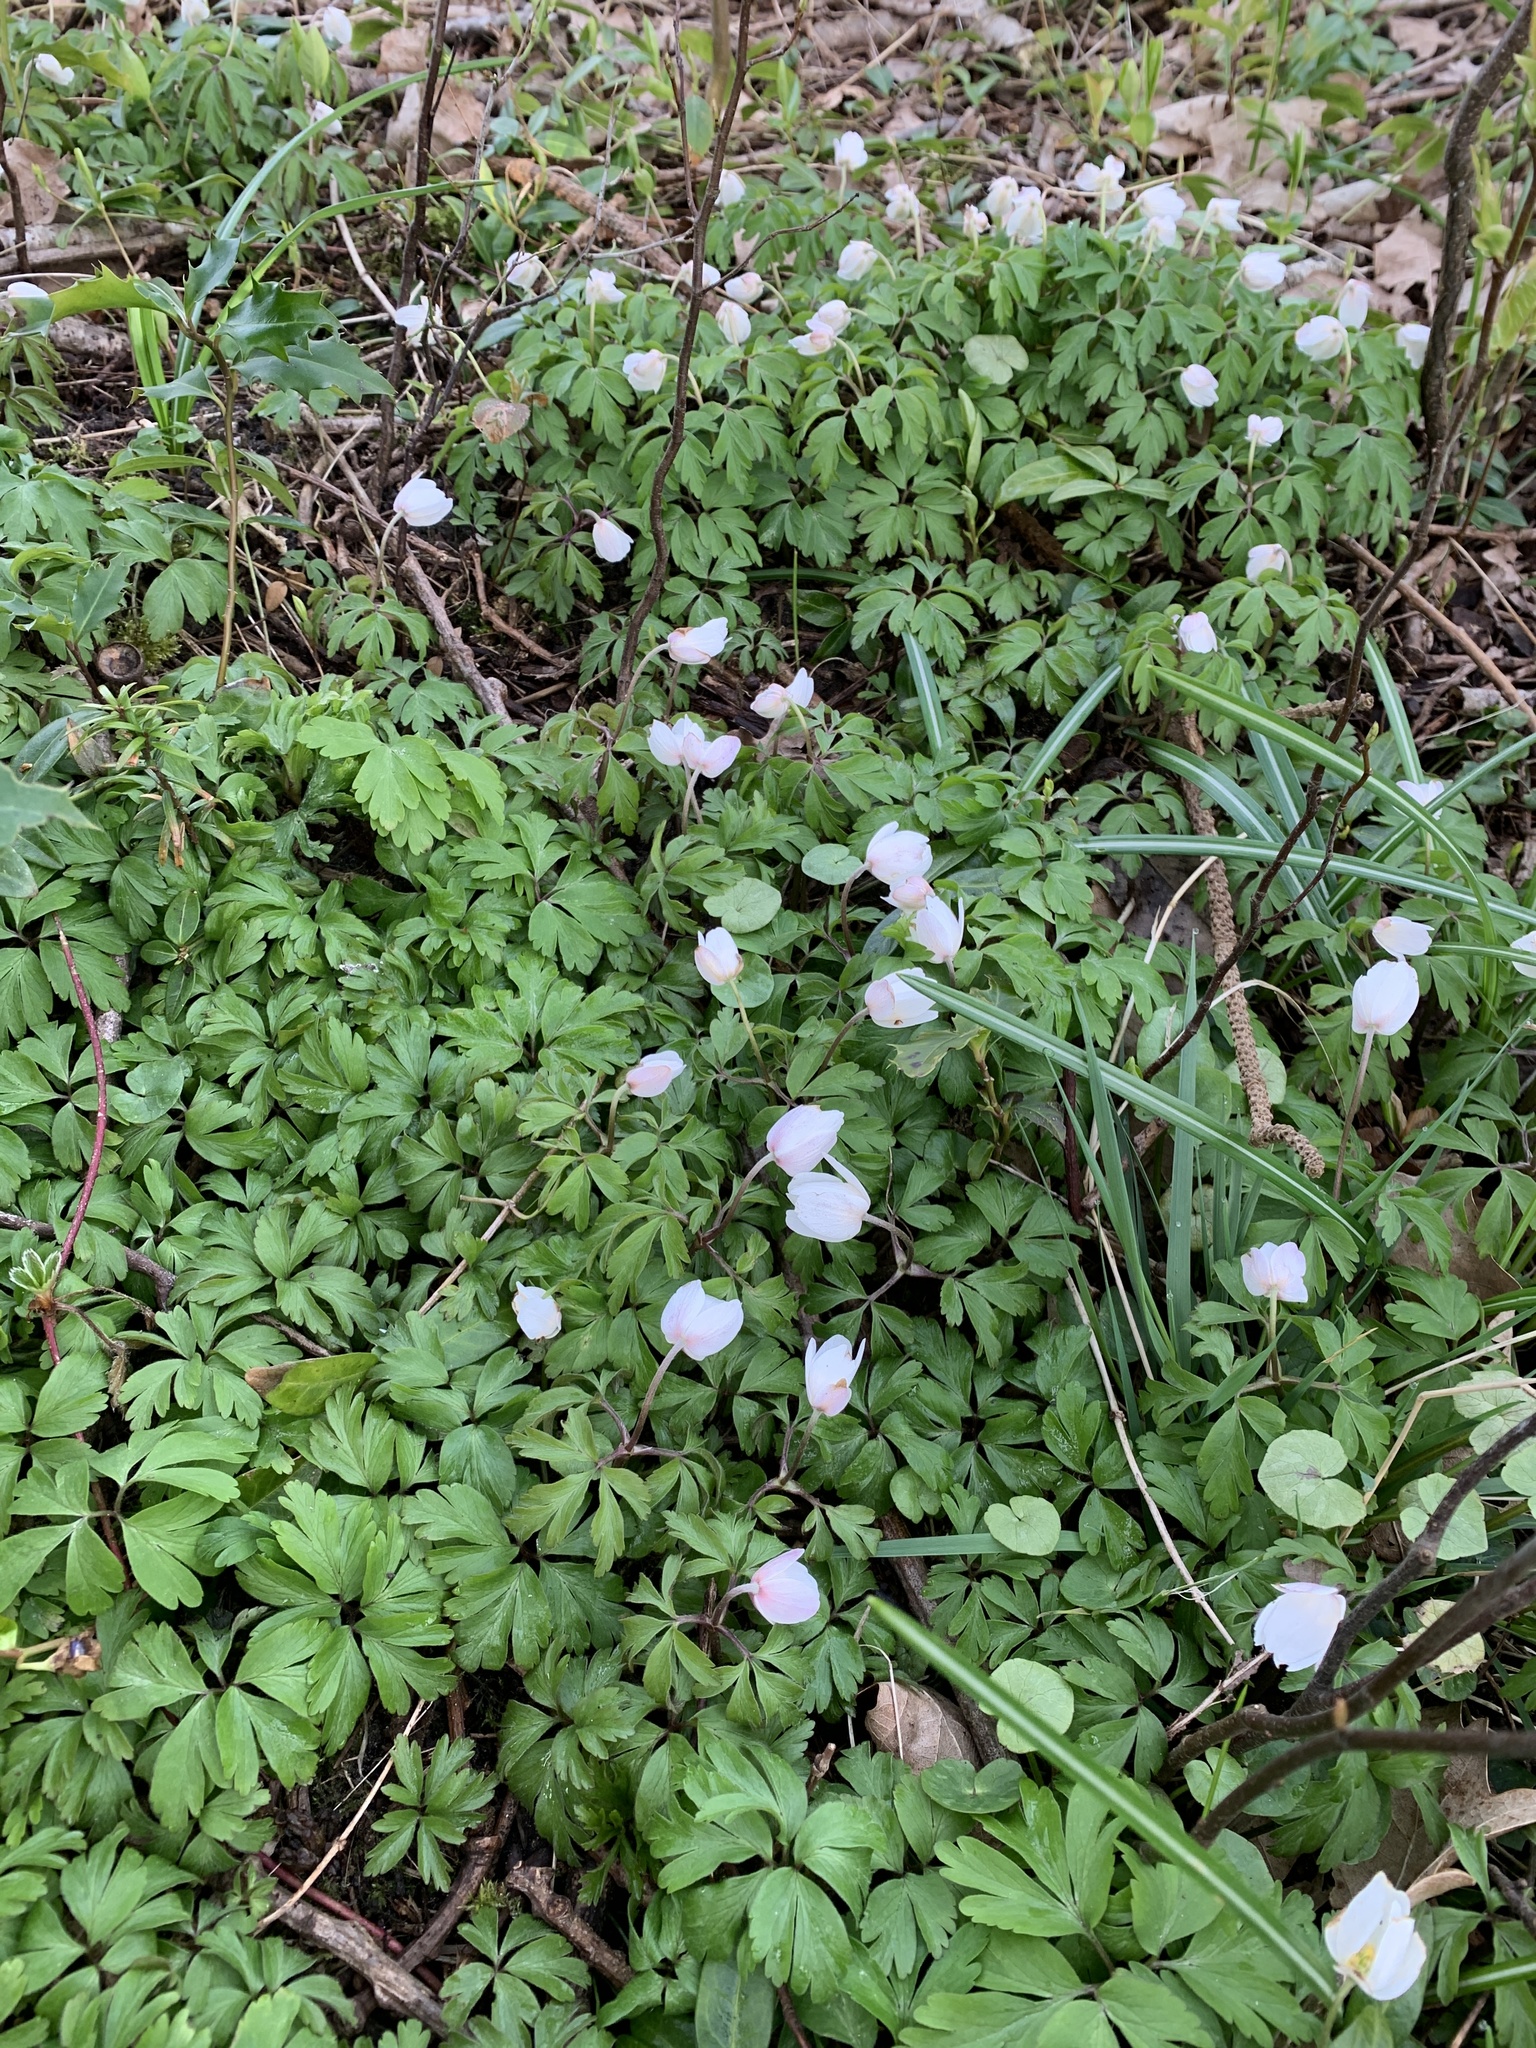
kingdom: Plantae
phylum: Tracheophyta
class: Magnoliopsida
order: Ranunculales
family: Ranunculaceae
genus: Anemone
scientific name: Anemone nemorosa
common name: Wood anemone
